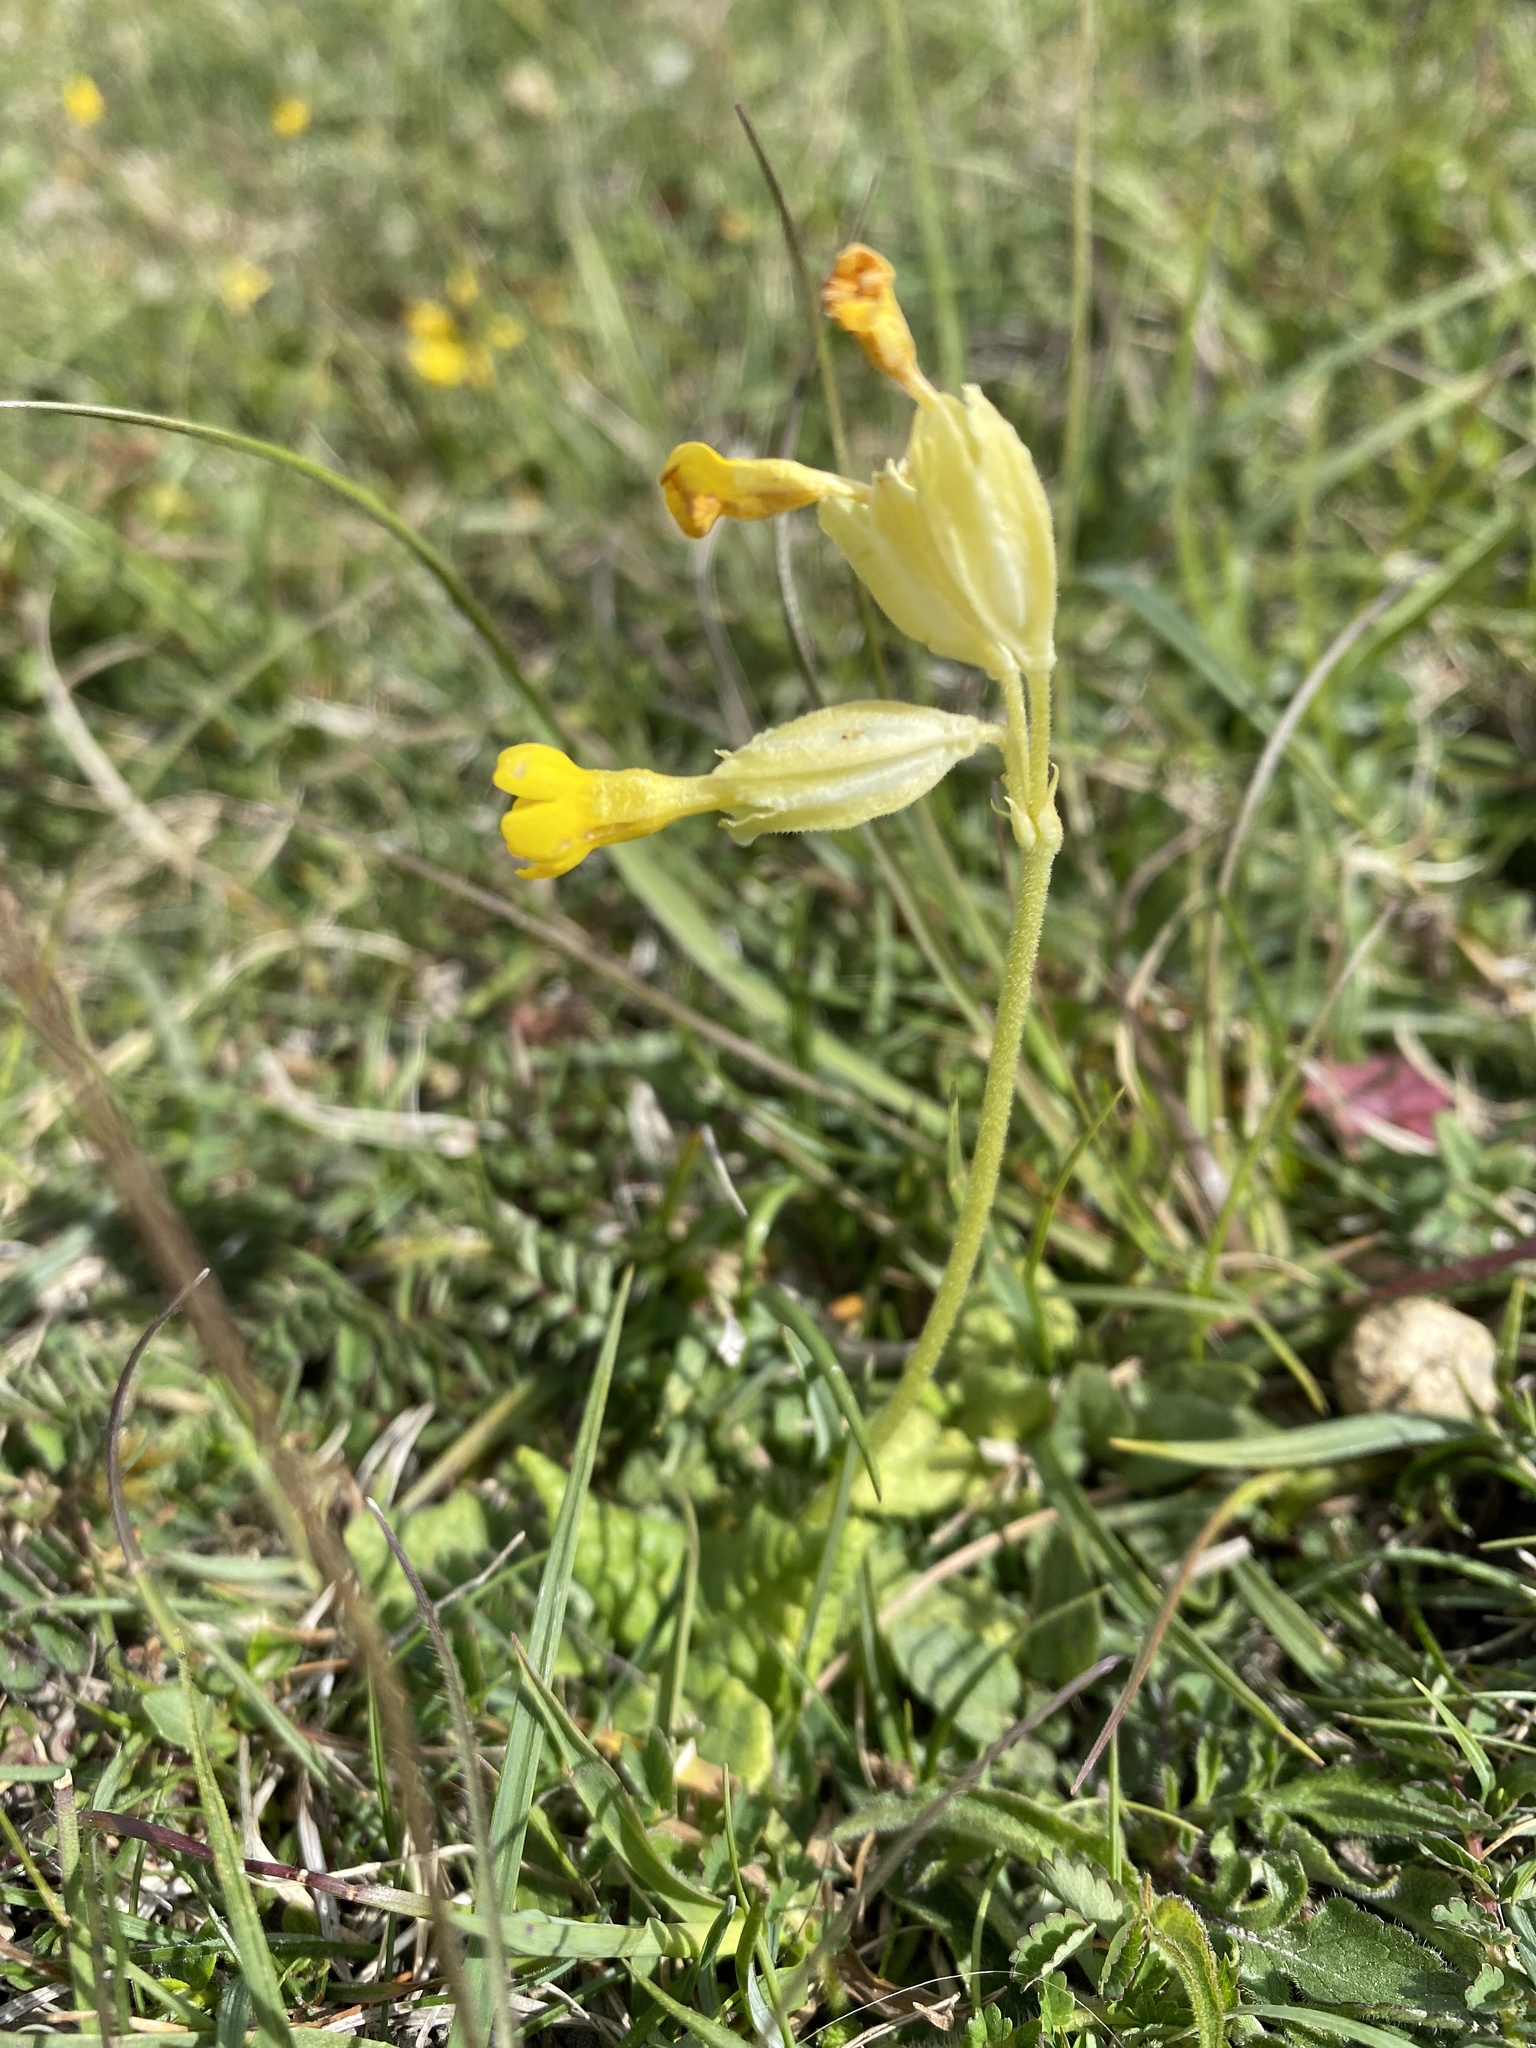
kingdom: Plantae
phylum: Tracheophyta
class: Magnoliopsida
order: Ericales
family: Primulaceae
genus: Primula
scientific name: Primula veris
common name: Cowslip
